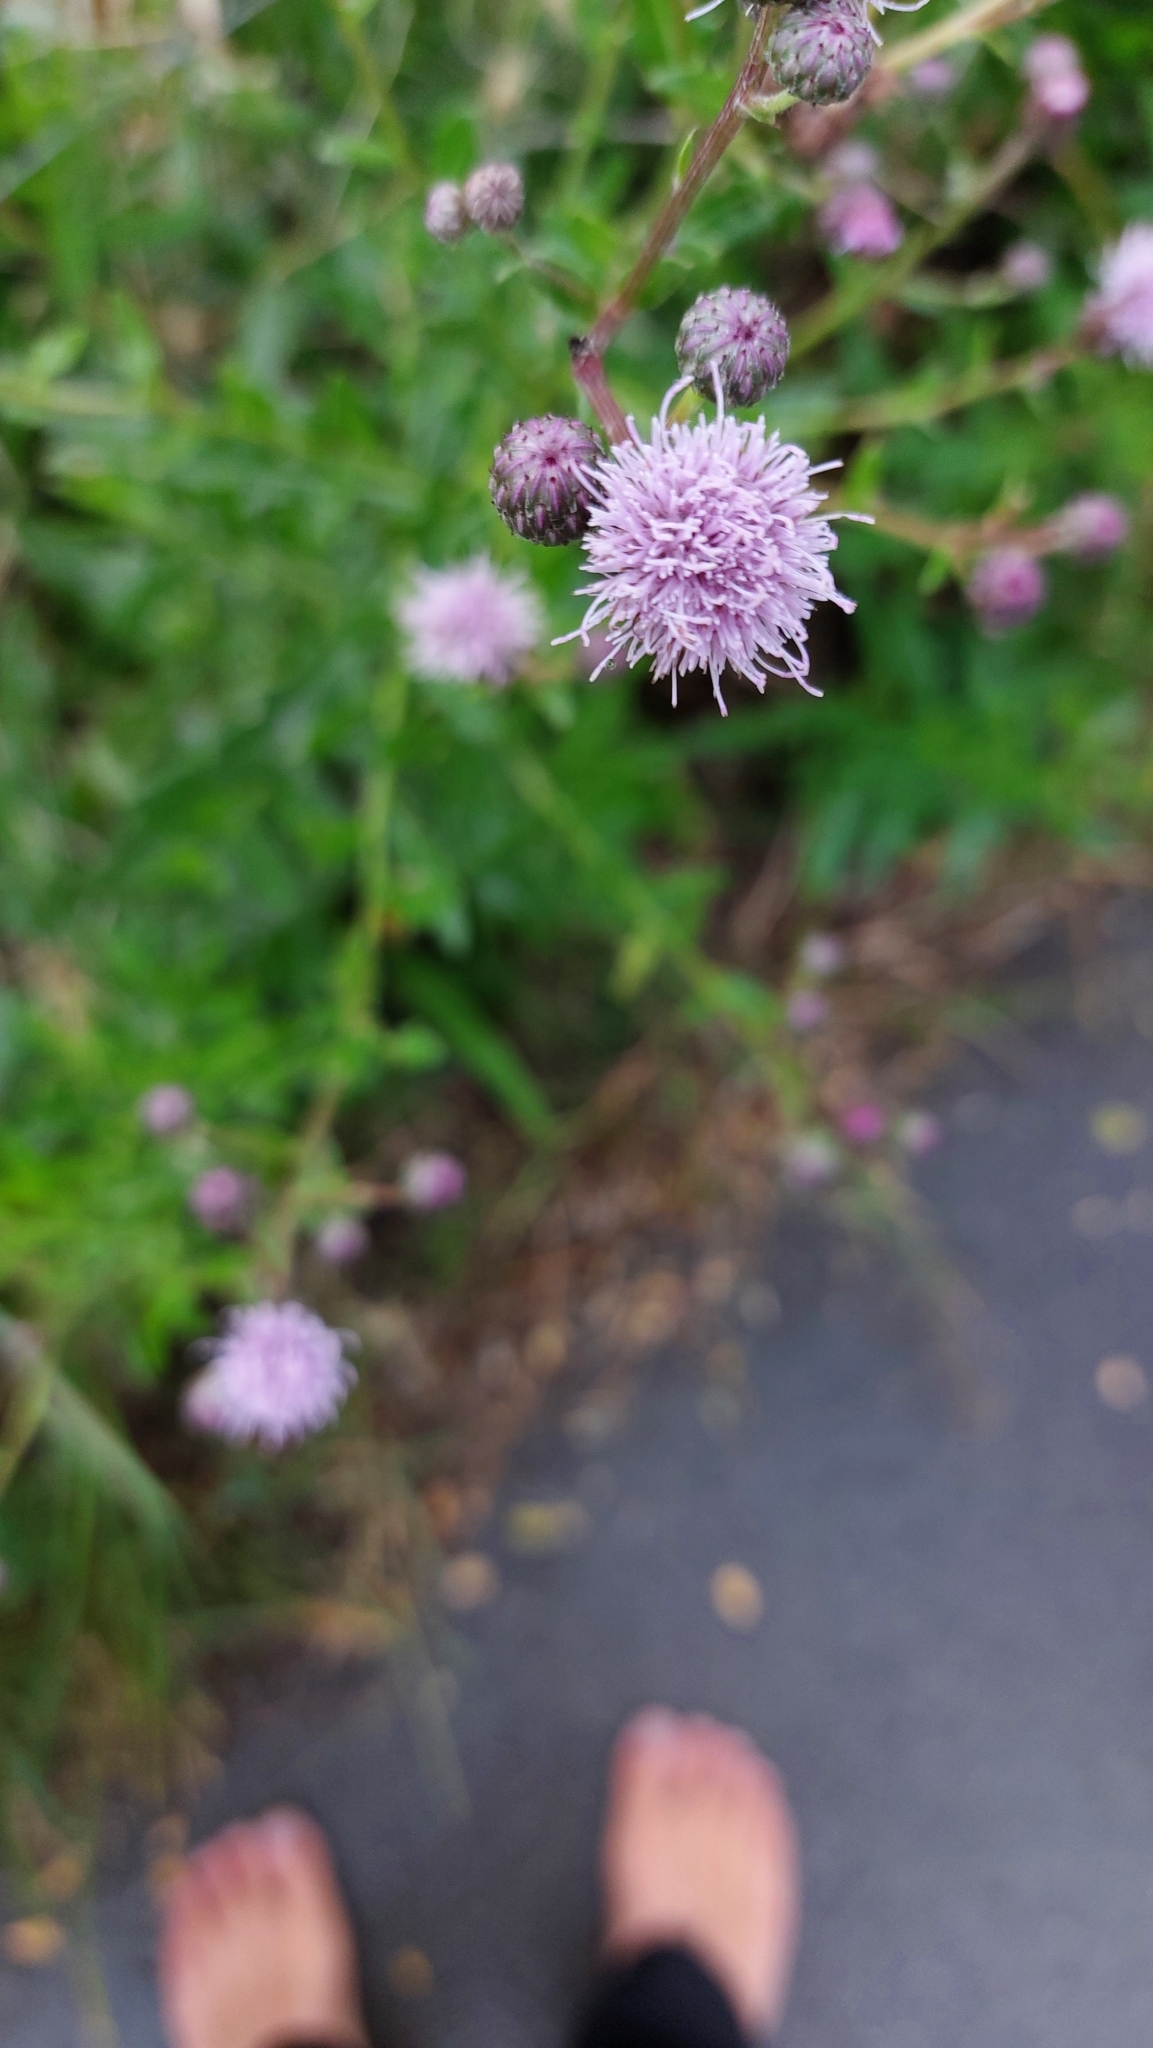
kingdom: Plantae
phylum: Tracheophyta
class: Magnoliopsida
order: Asterales
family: Asteraceae
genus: Cirsium
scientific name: Cirsium arvense
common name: Creeping thistle
